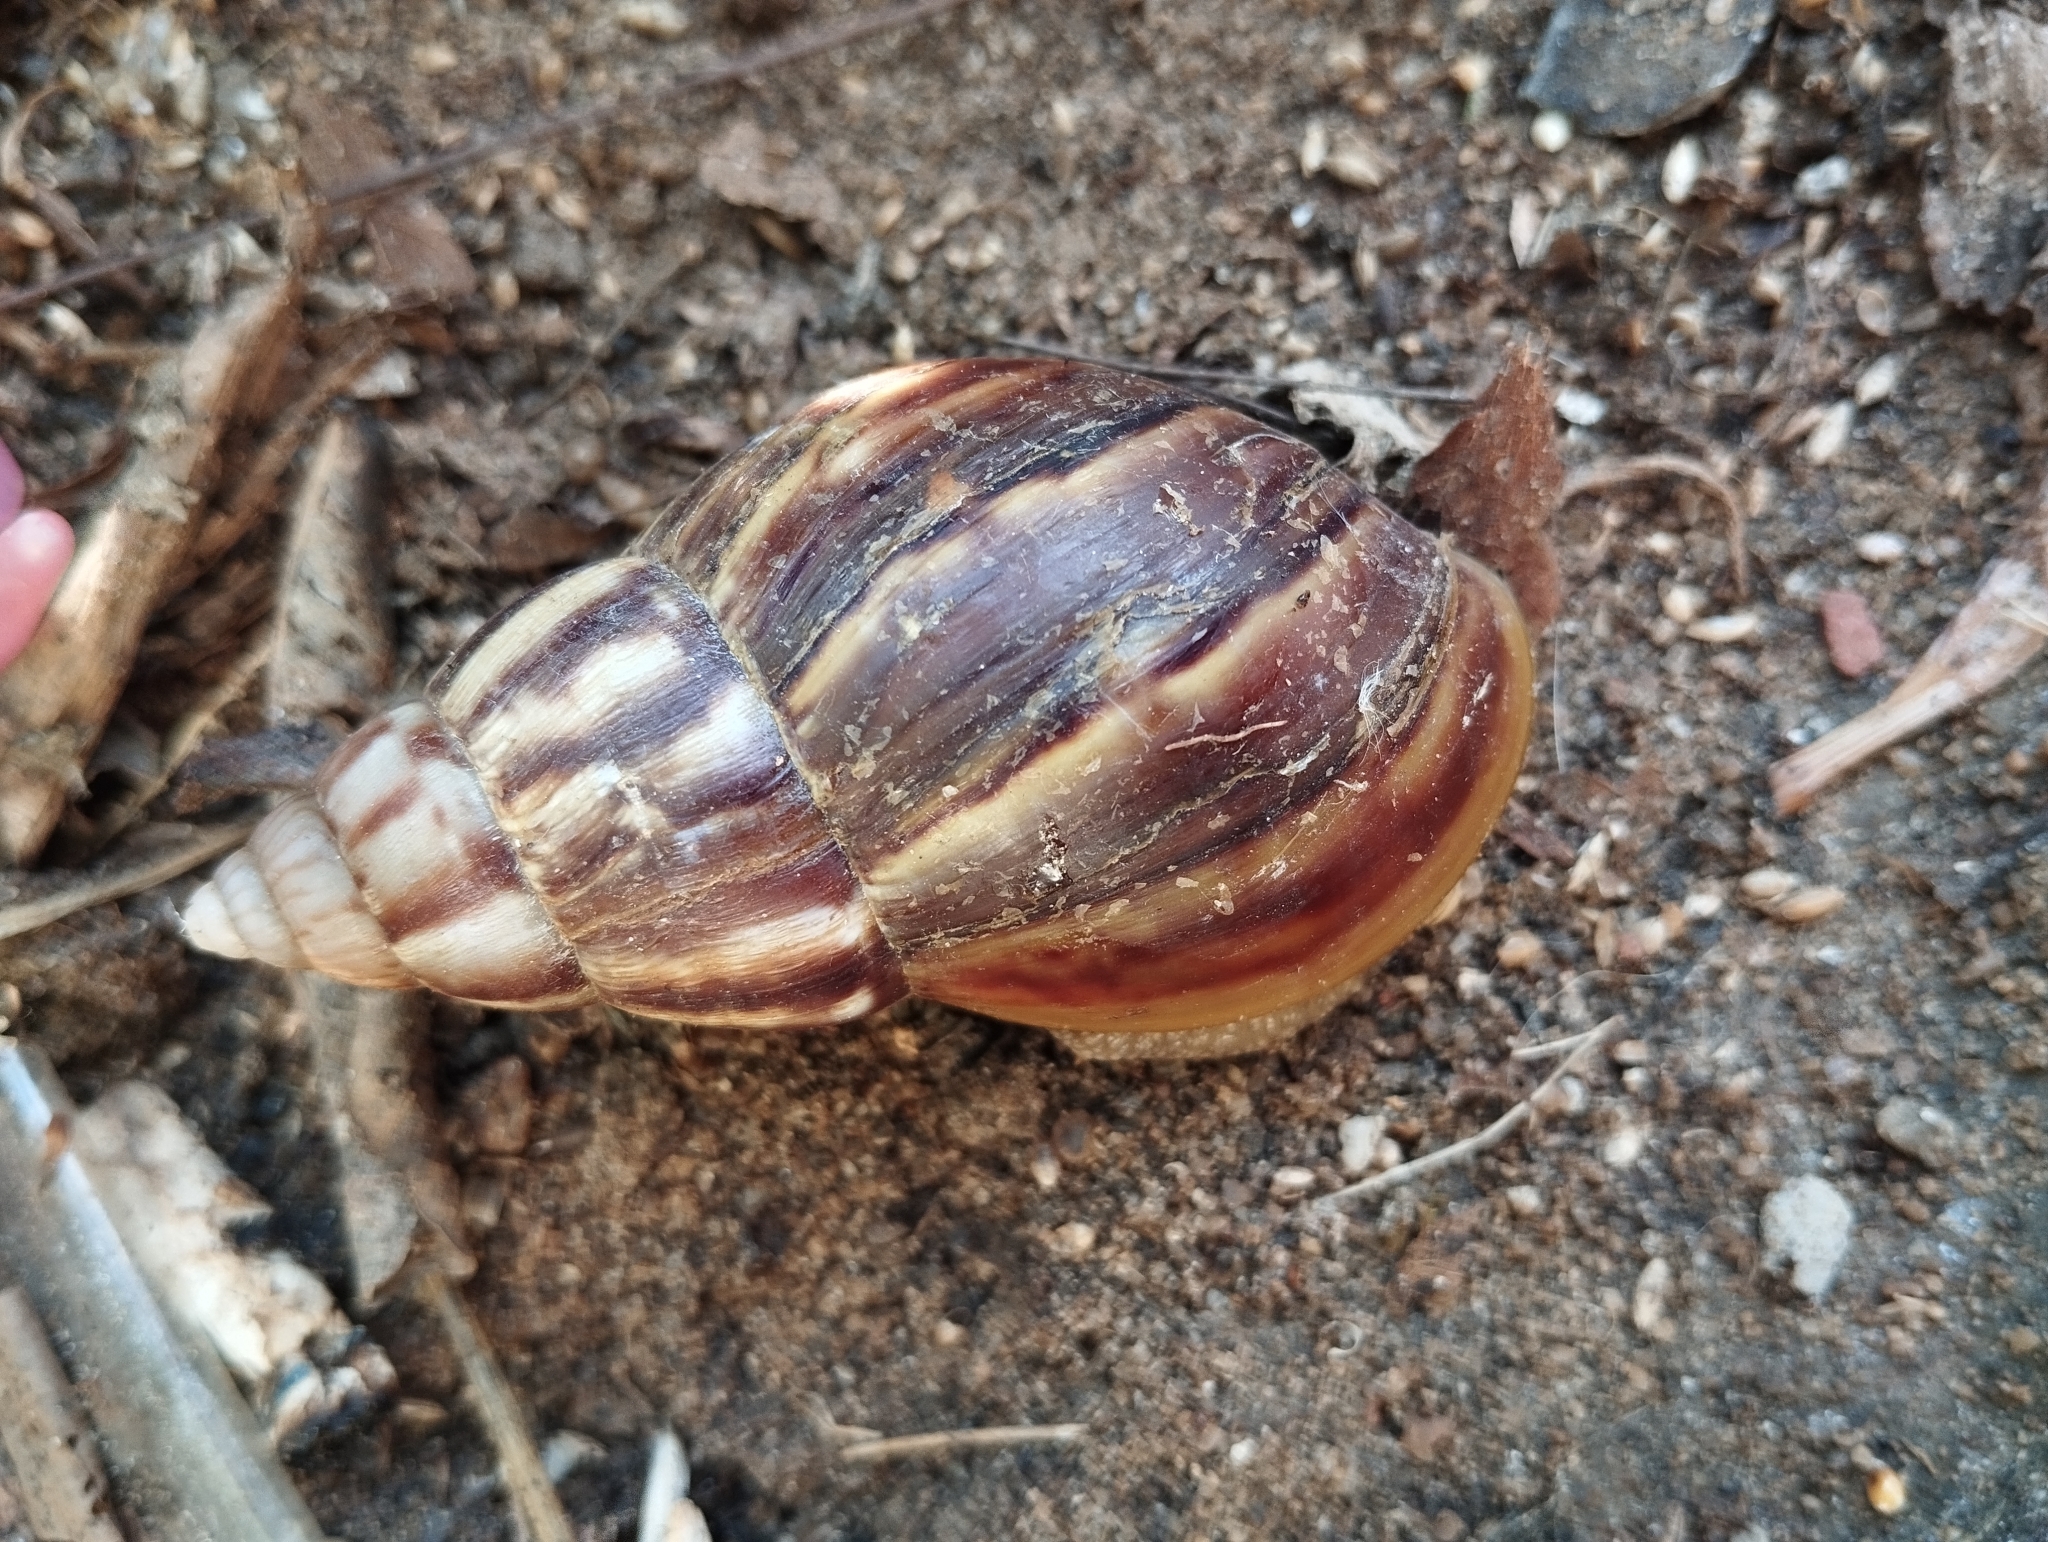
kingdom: Animalia
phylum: Mollusca
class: Gastropoda
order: Stylommatophora
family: Achatinidae
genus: Lissachatina
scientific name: Lissachatina fulica
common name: Giant african snail
